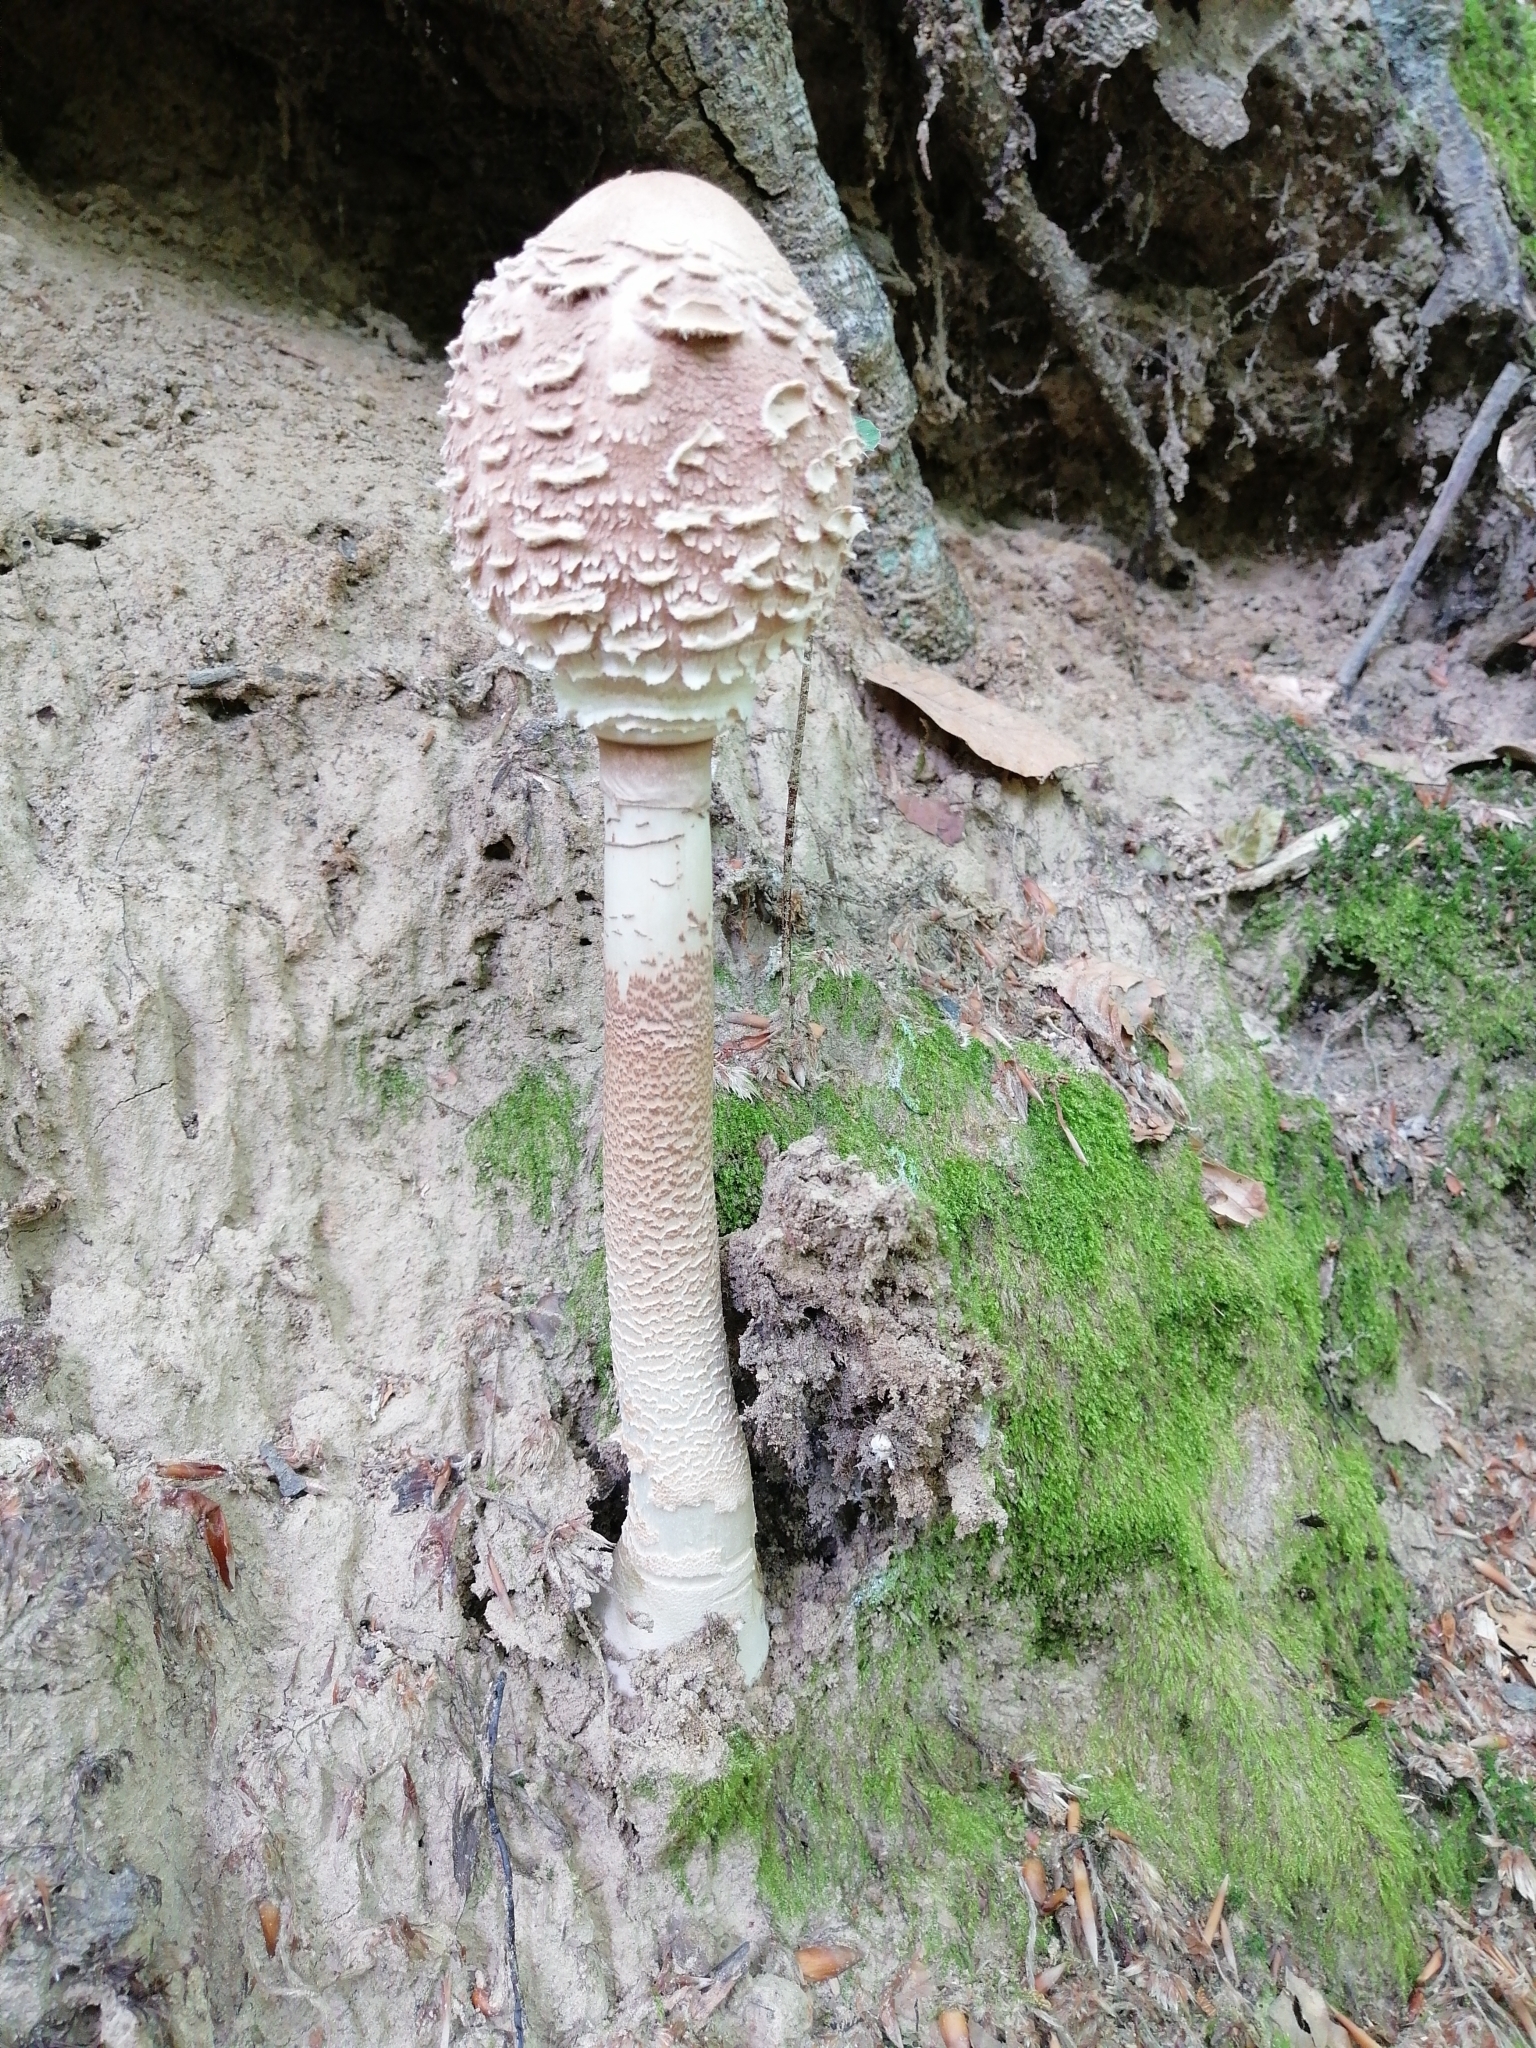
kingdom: Fungi
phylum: Basidiomycota
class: Agaricomycetes
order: Agaricales
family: Agaricaceae
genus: Macrolepiota
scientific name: Macrolepiota procera
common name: Parasol
